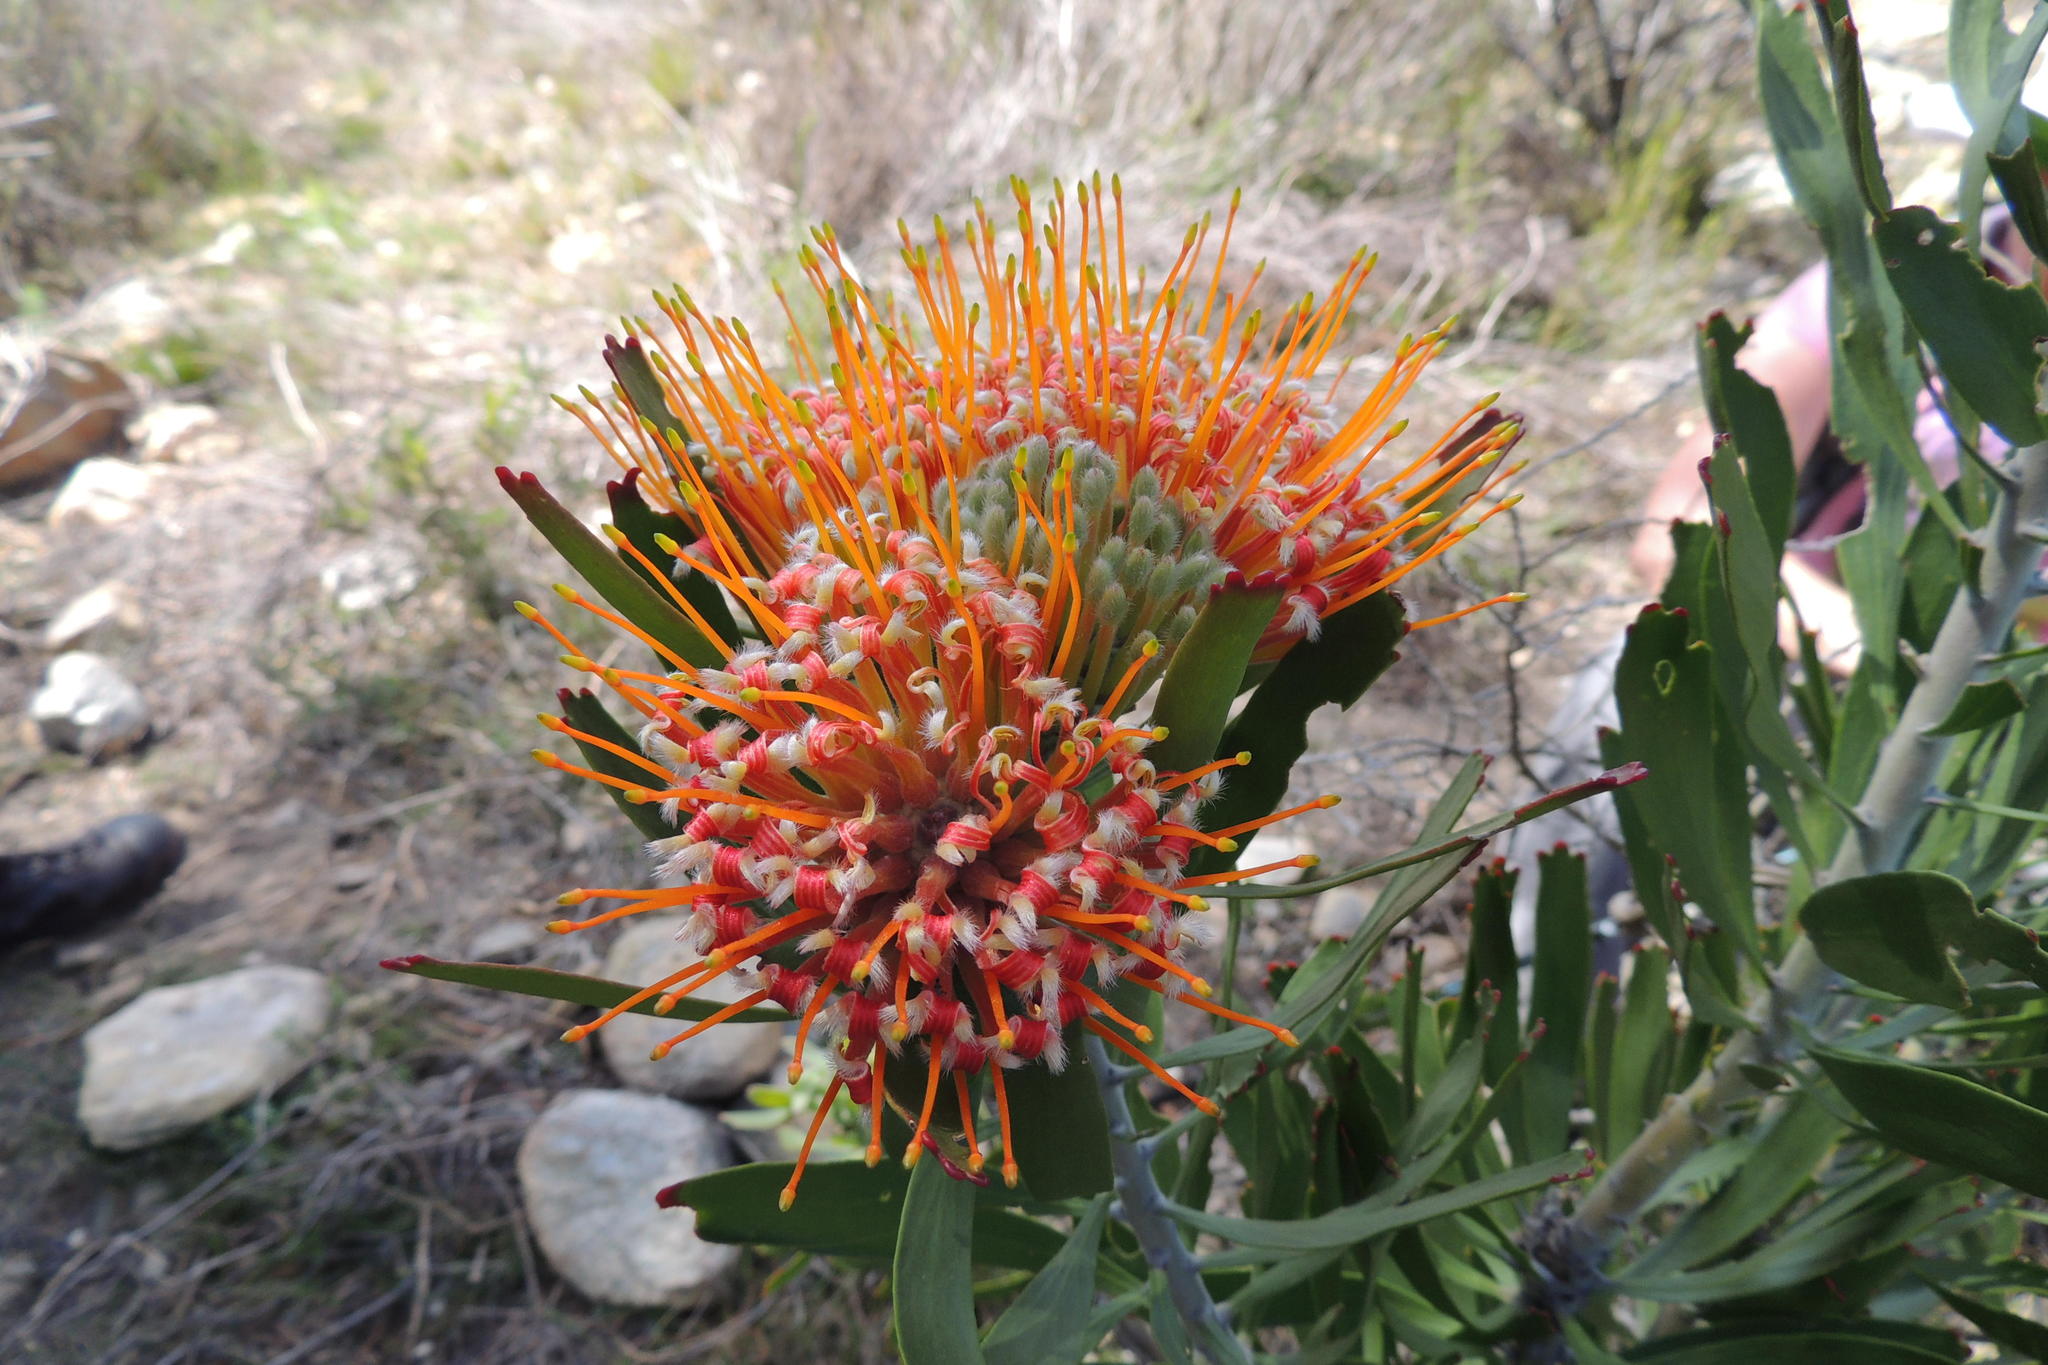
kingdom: Plantae
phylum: Tracheophyta
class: Magnoliopsida
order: Proteales
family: Proteaceae
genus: Leucospermum
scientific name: Leucospermum erubescens
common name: Oudtshoorn pincushion
